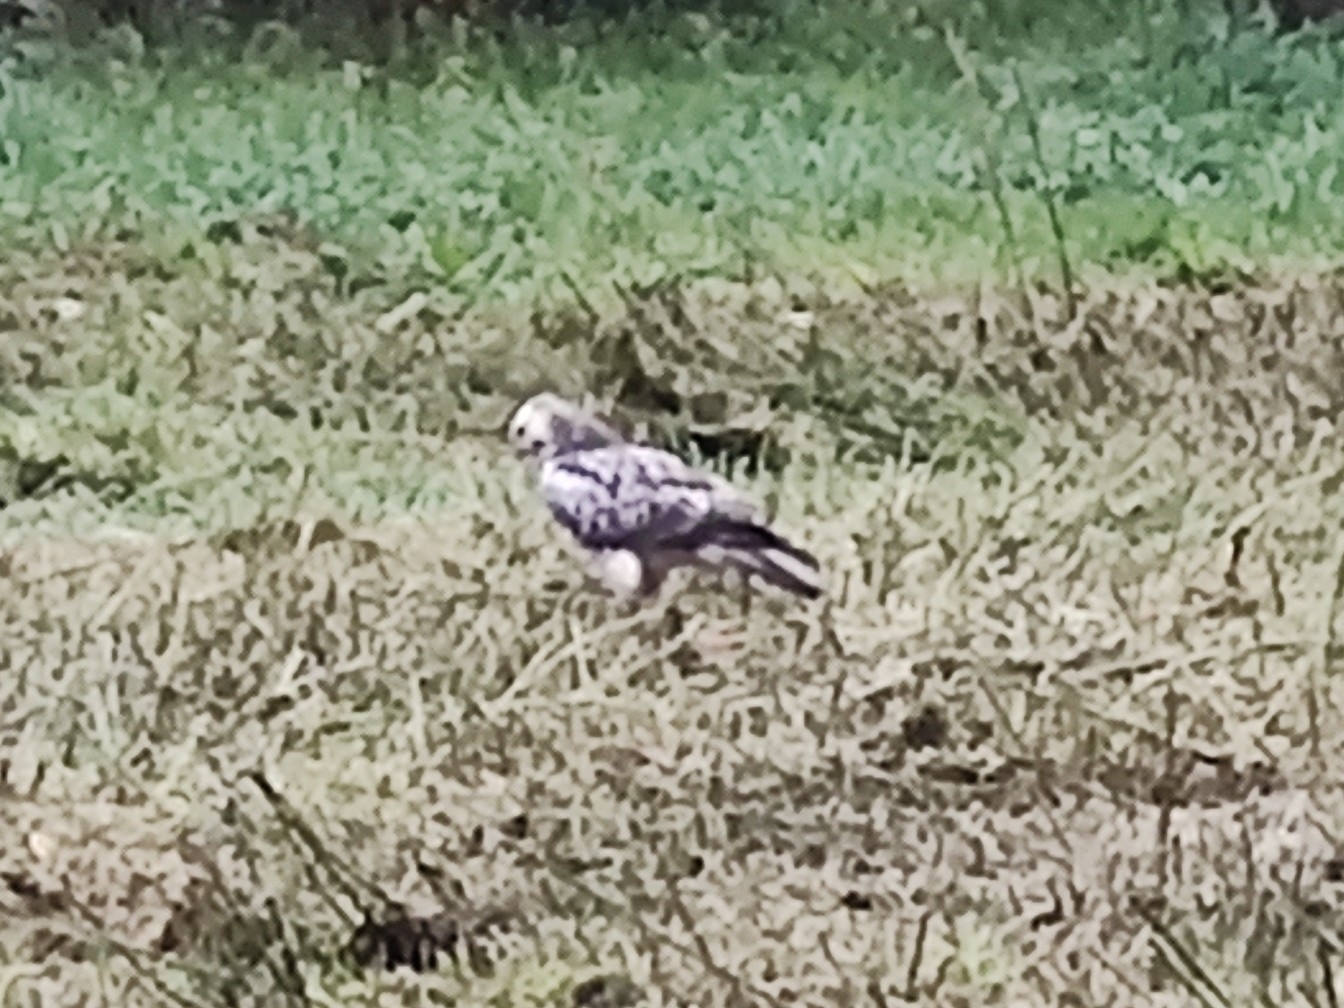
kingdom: Animalia
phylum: Chordata
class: Aves
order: Accipitriformes
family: Accipitridae
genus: Buteo
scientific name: Buteo buteo
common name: Common buzzard
